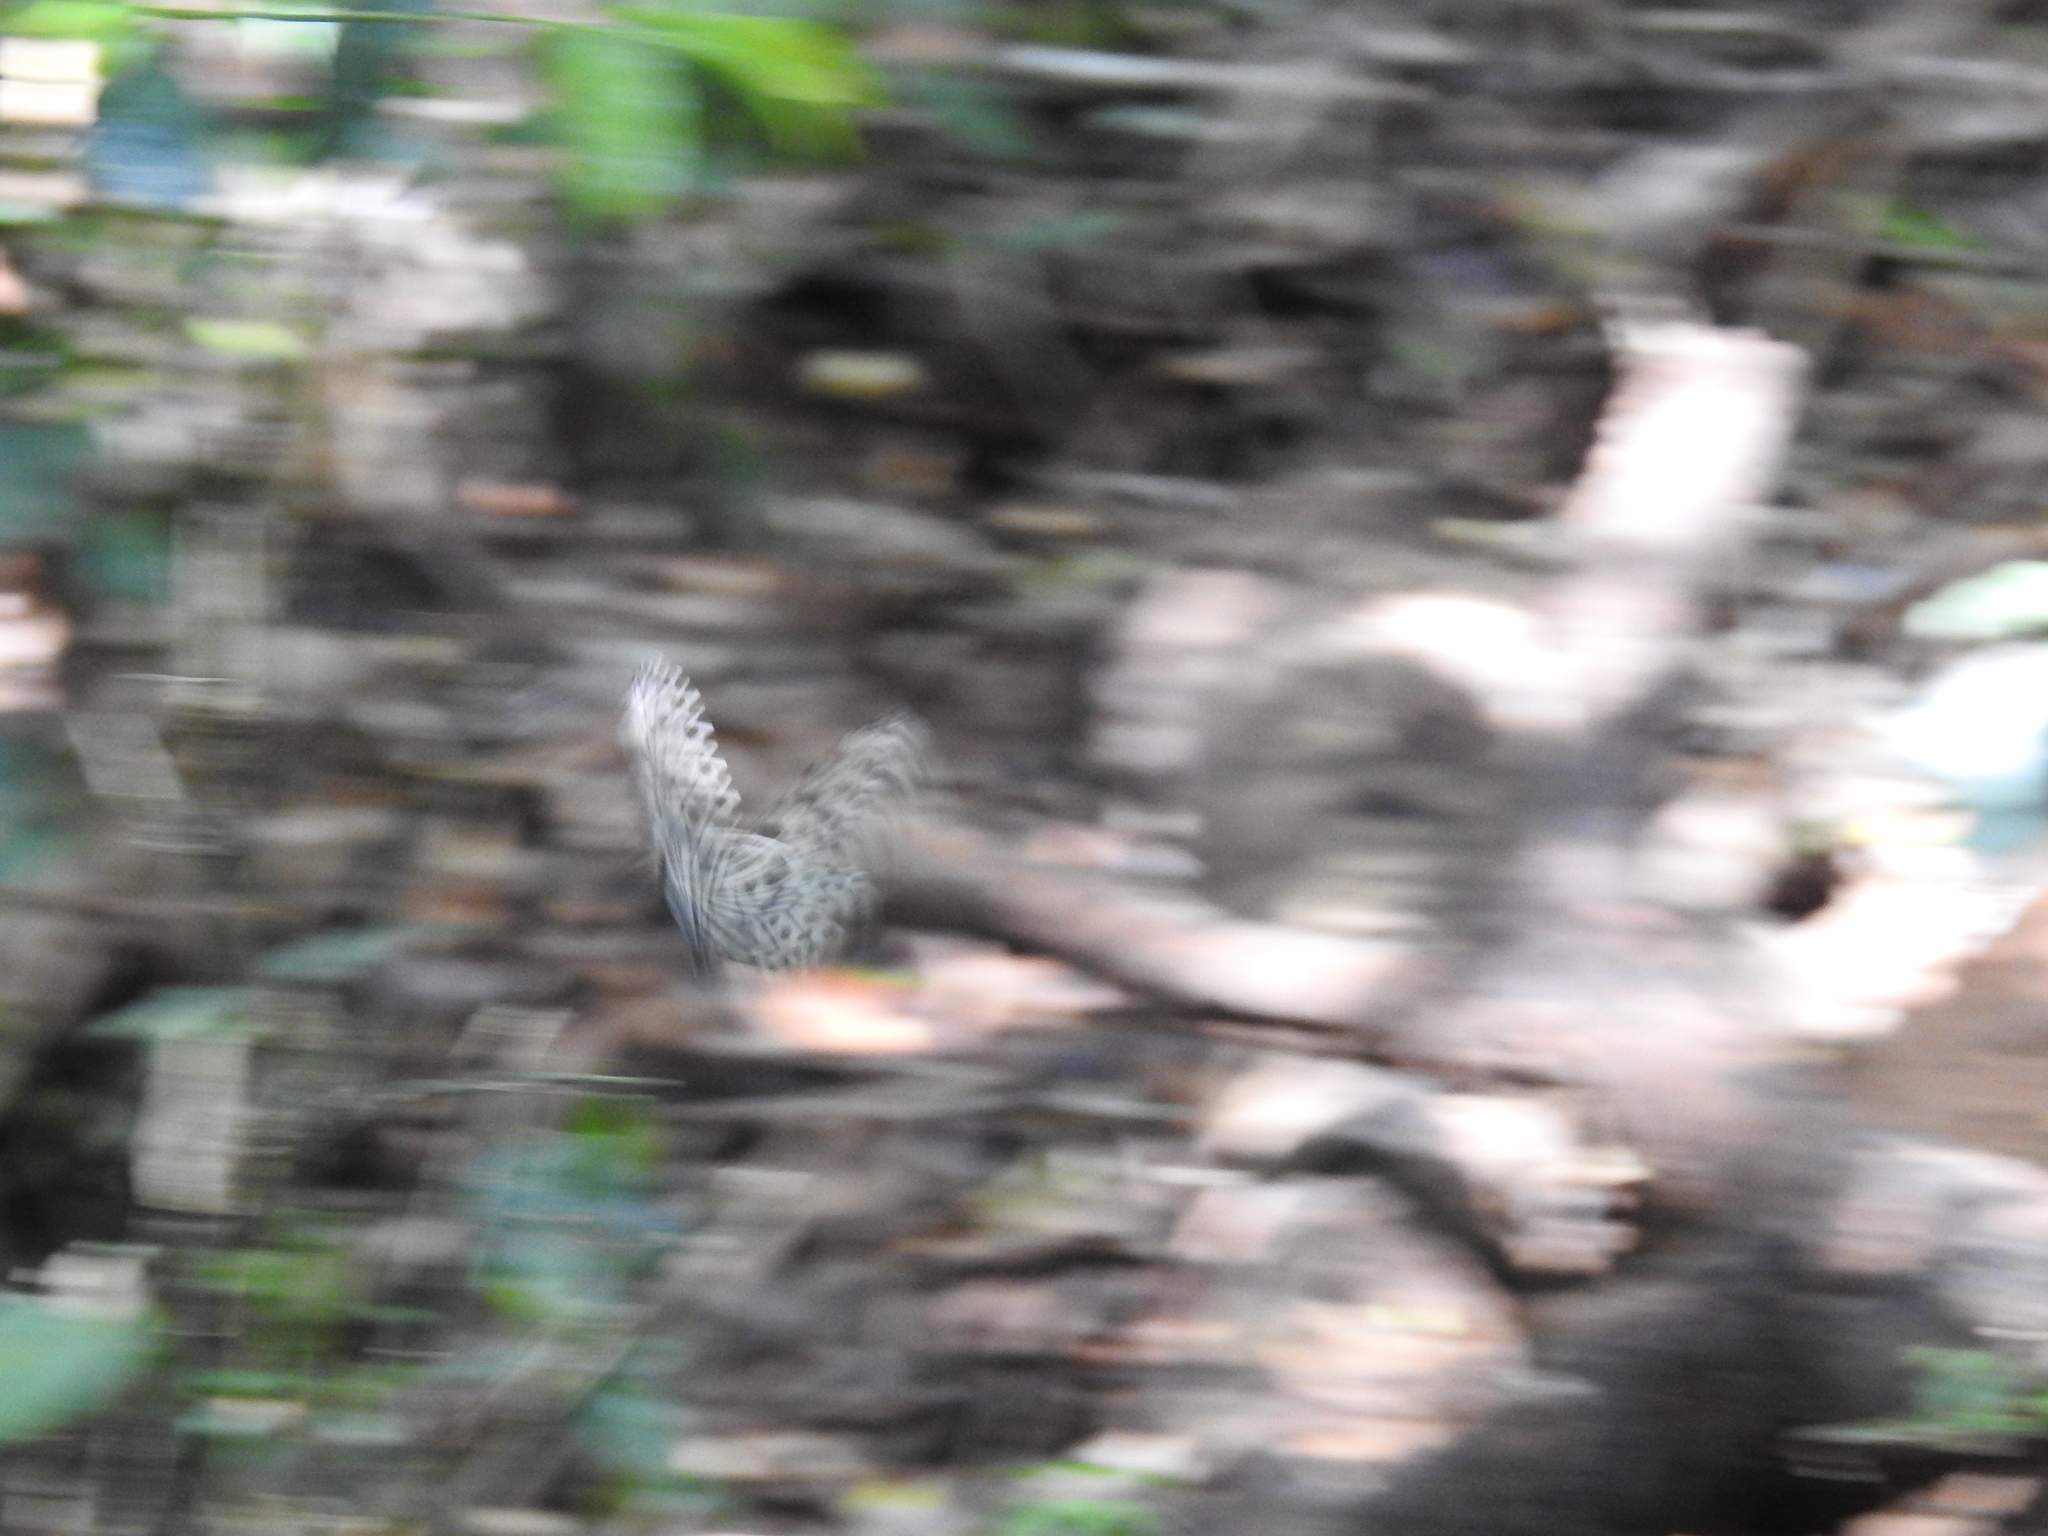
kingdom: Animalia
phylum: Arthropoda
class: Insecta
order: Lepidoptera
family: Nymphalidae
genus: Idea
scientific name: Idea malabarica
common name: Malabar tree-nymph
